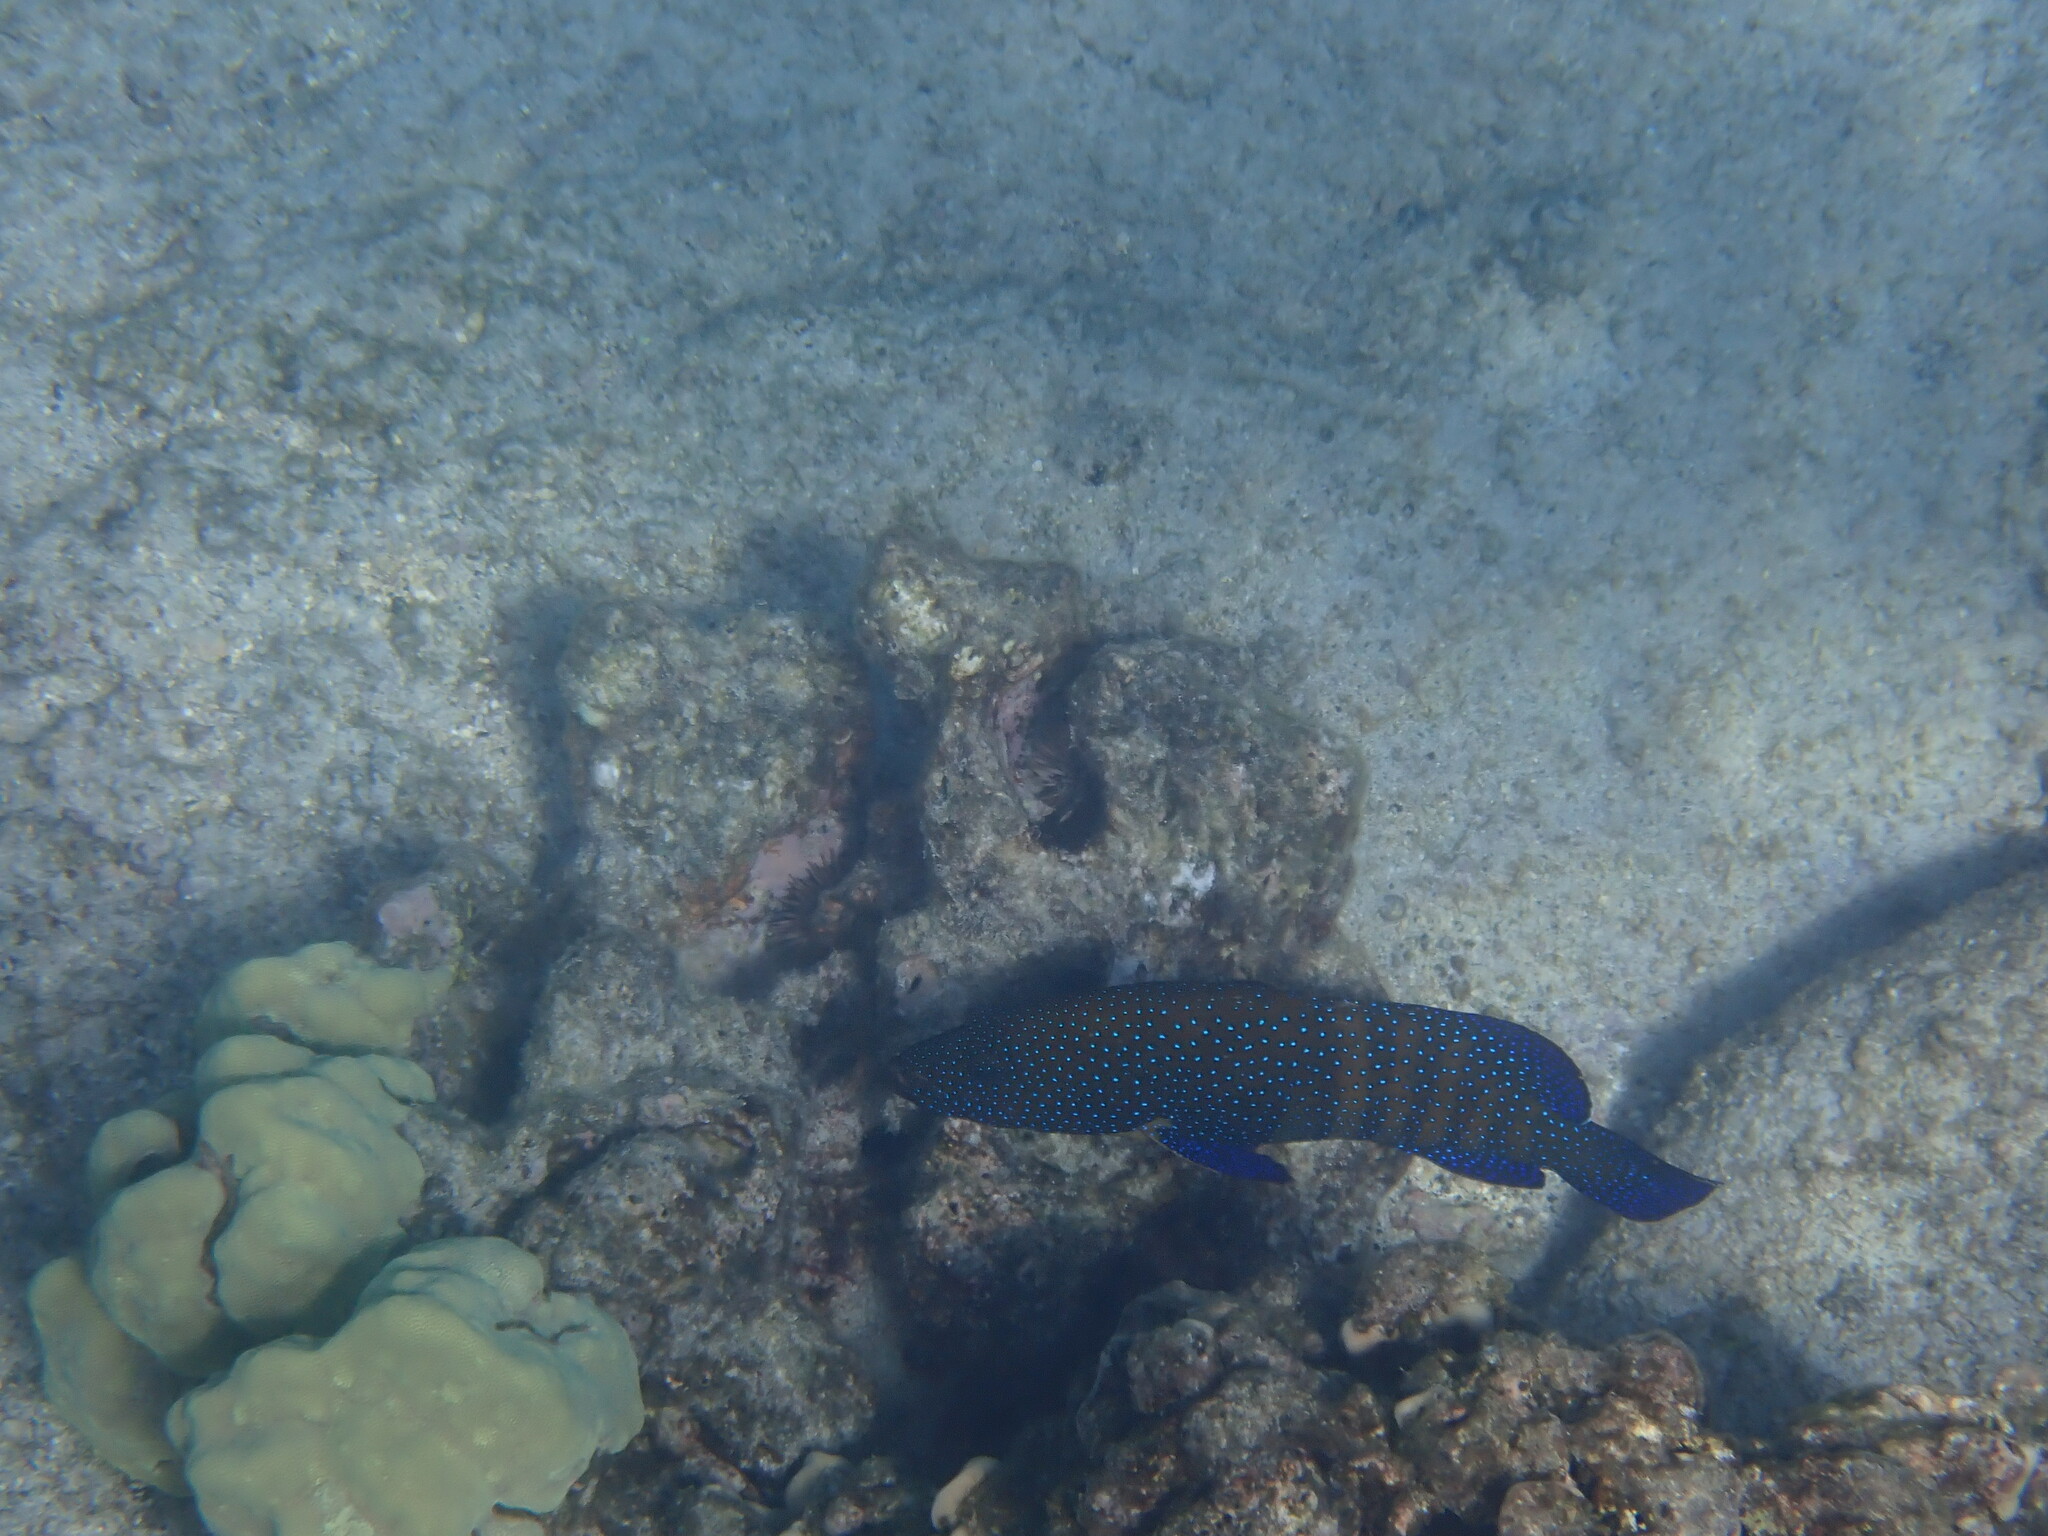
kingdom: Animalia
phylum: Chordata
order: Perciformes
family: Serranidae
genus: Cephalopholis
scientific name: Cephalopholis argus
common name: Peacock grouper
